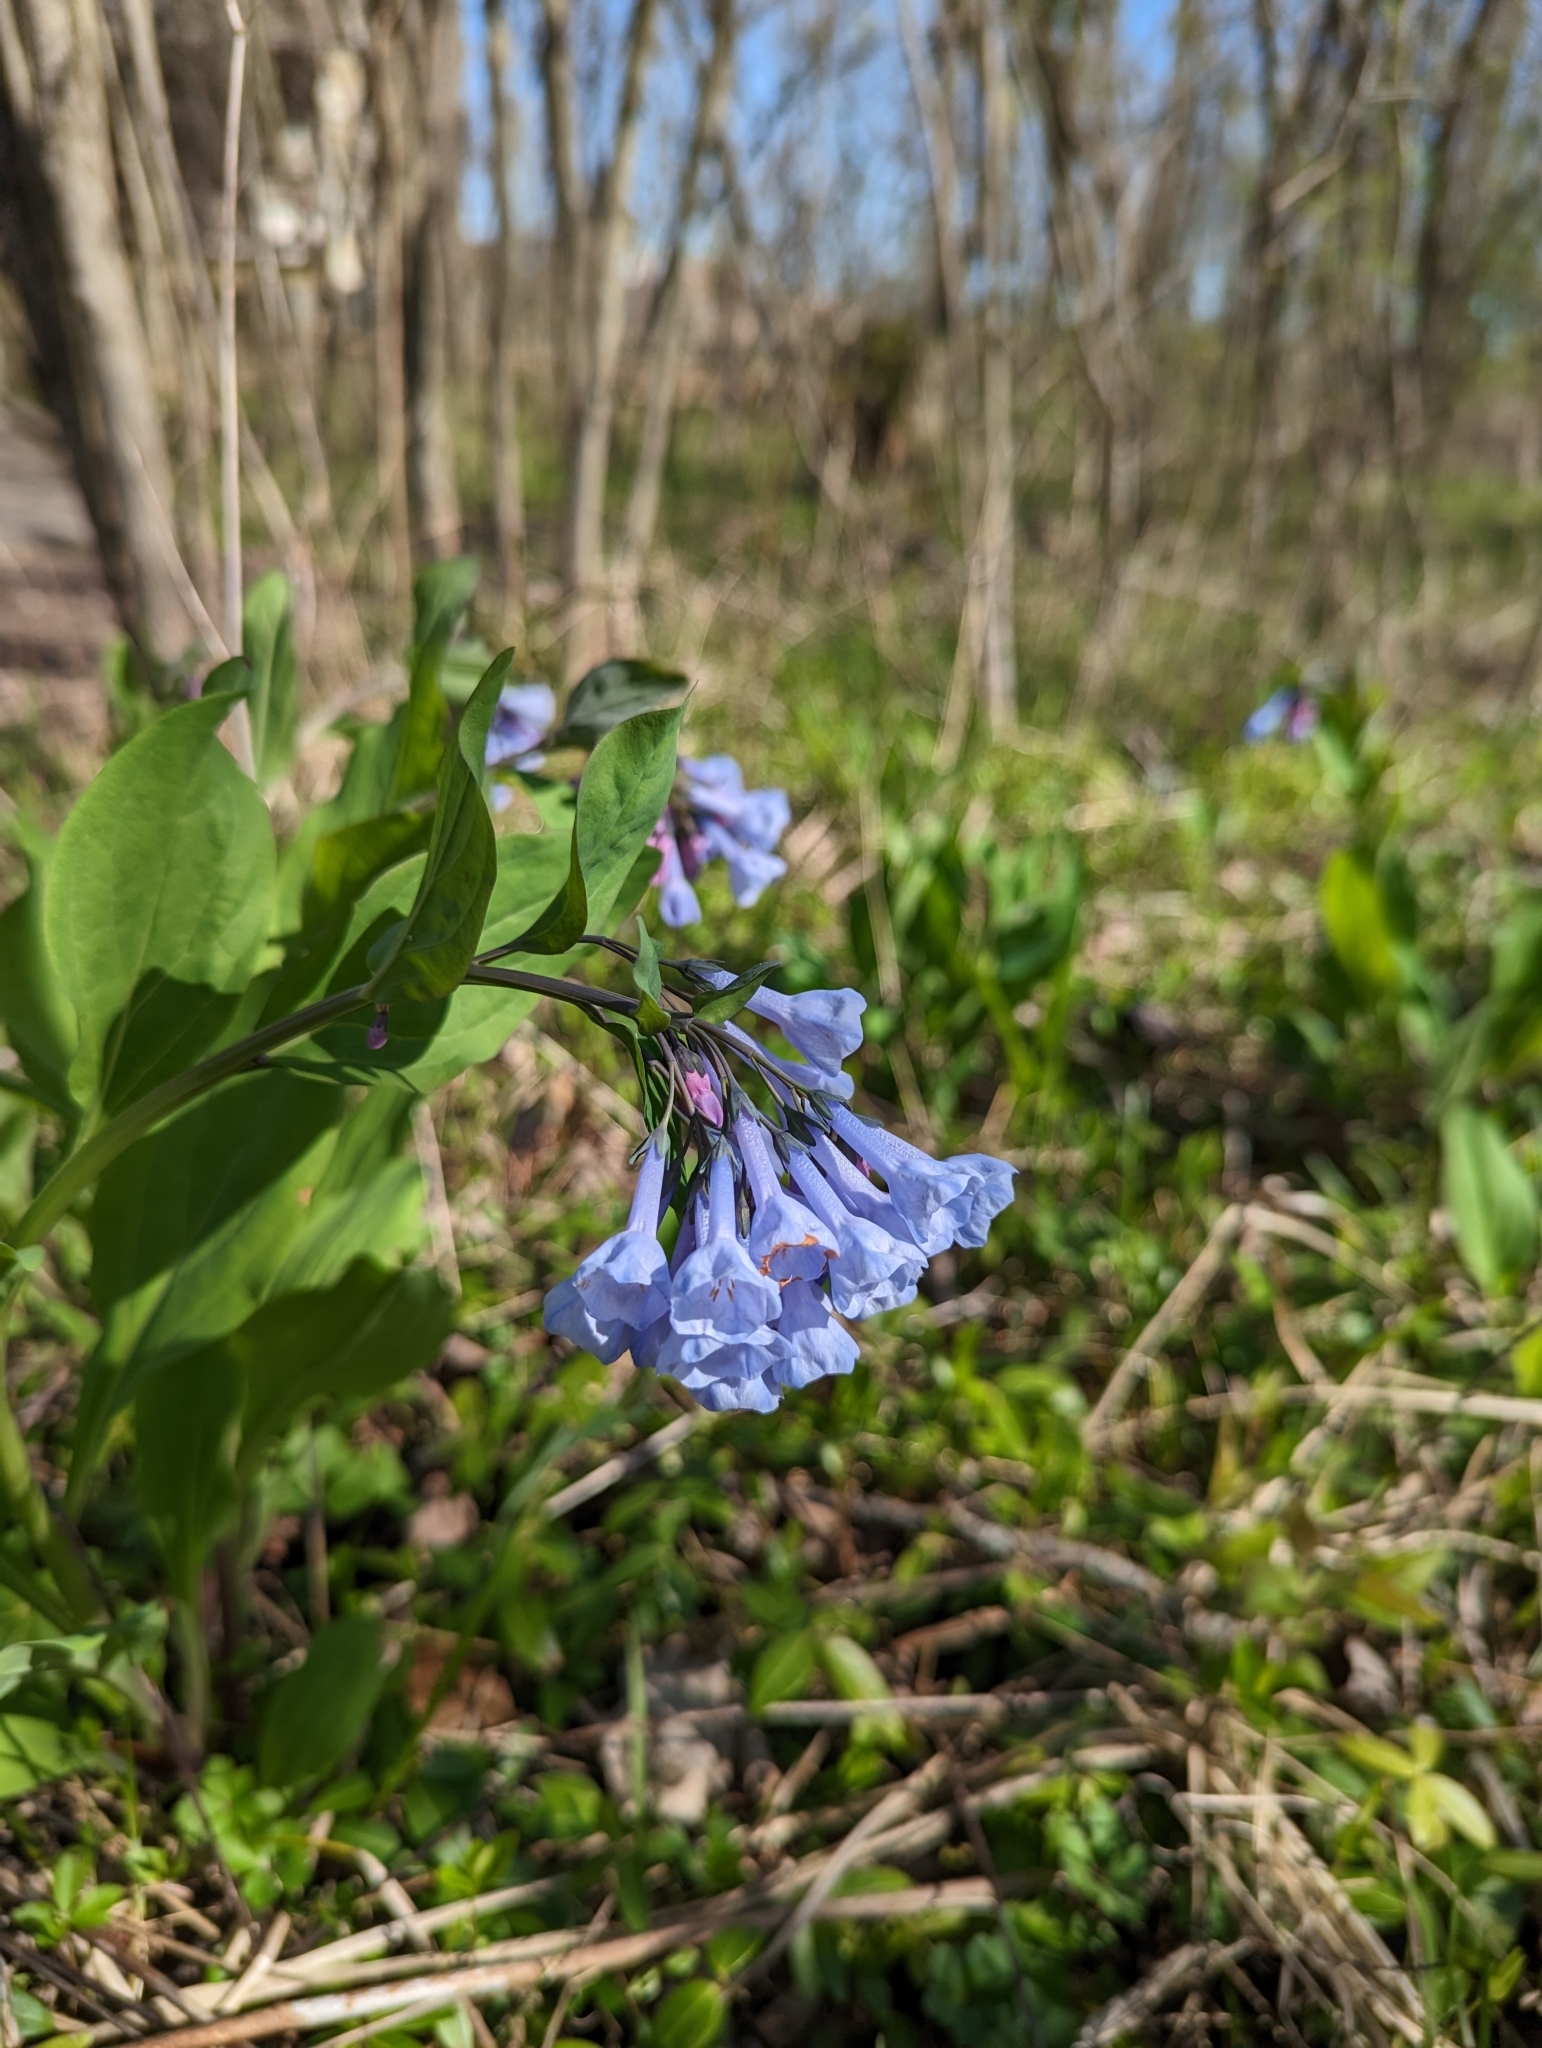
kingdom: Plantae
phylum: Tracheophyta
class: Magnoliopsida
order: Boraginales
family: Boraginaceae
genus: Mertensia
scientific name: Mertensia virginica
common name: Virginia bluebells
